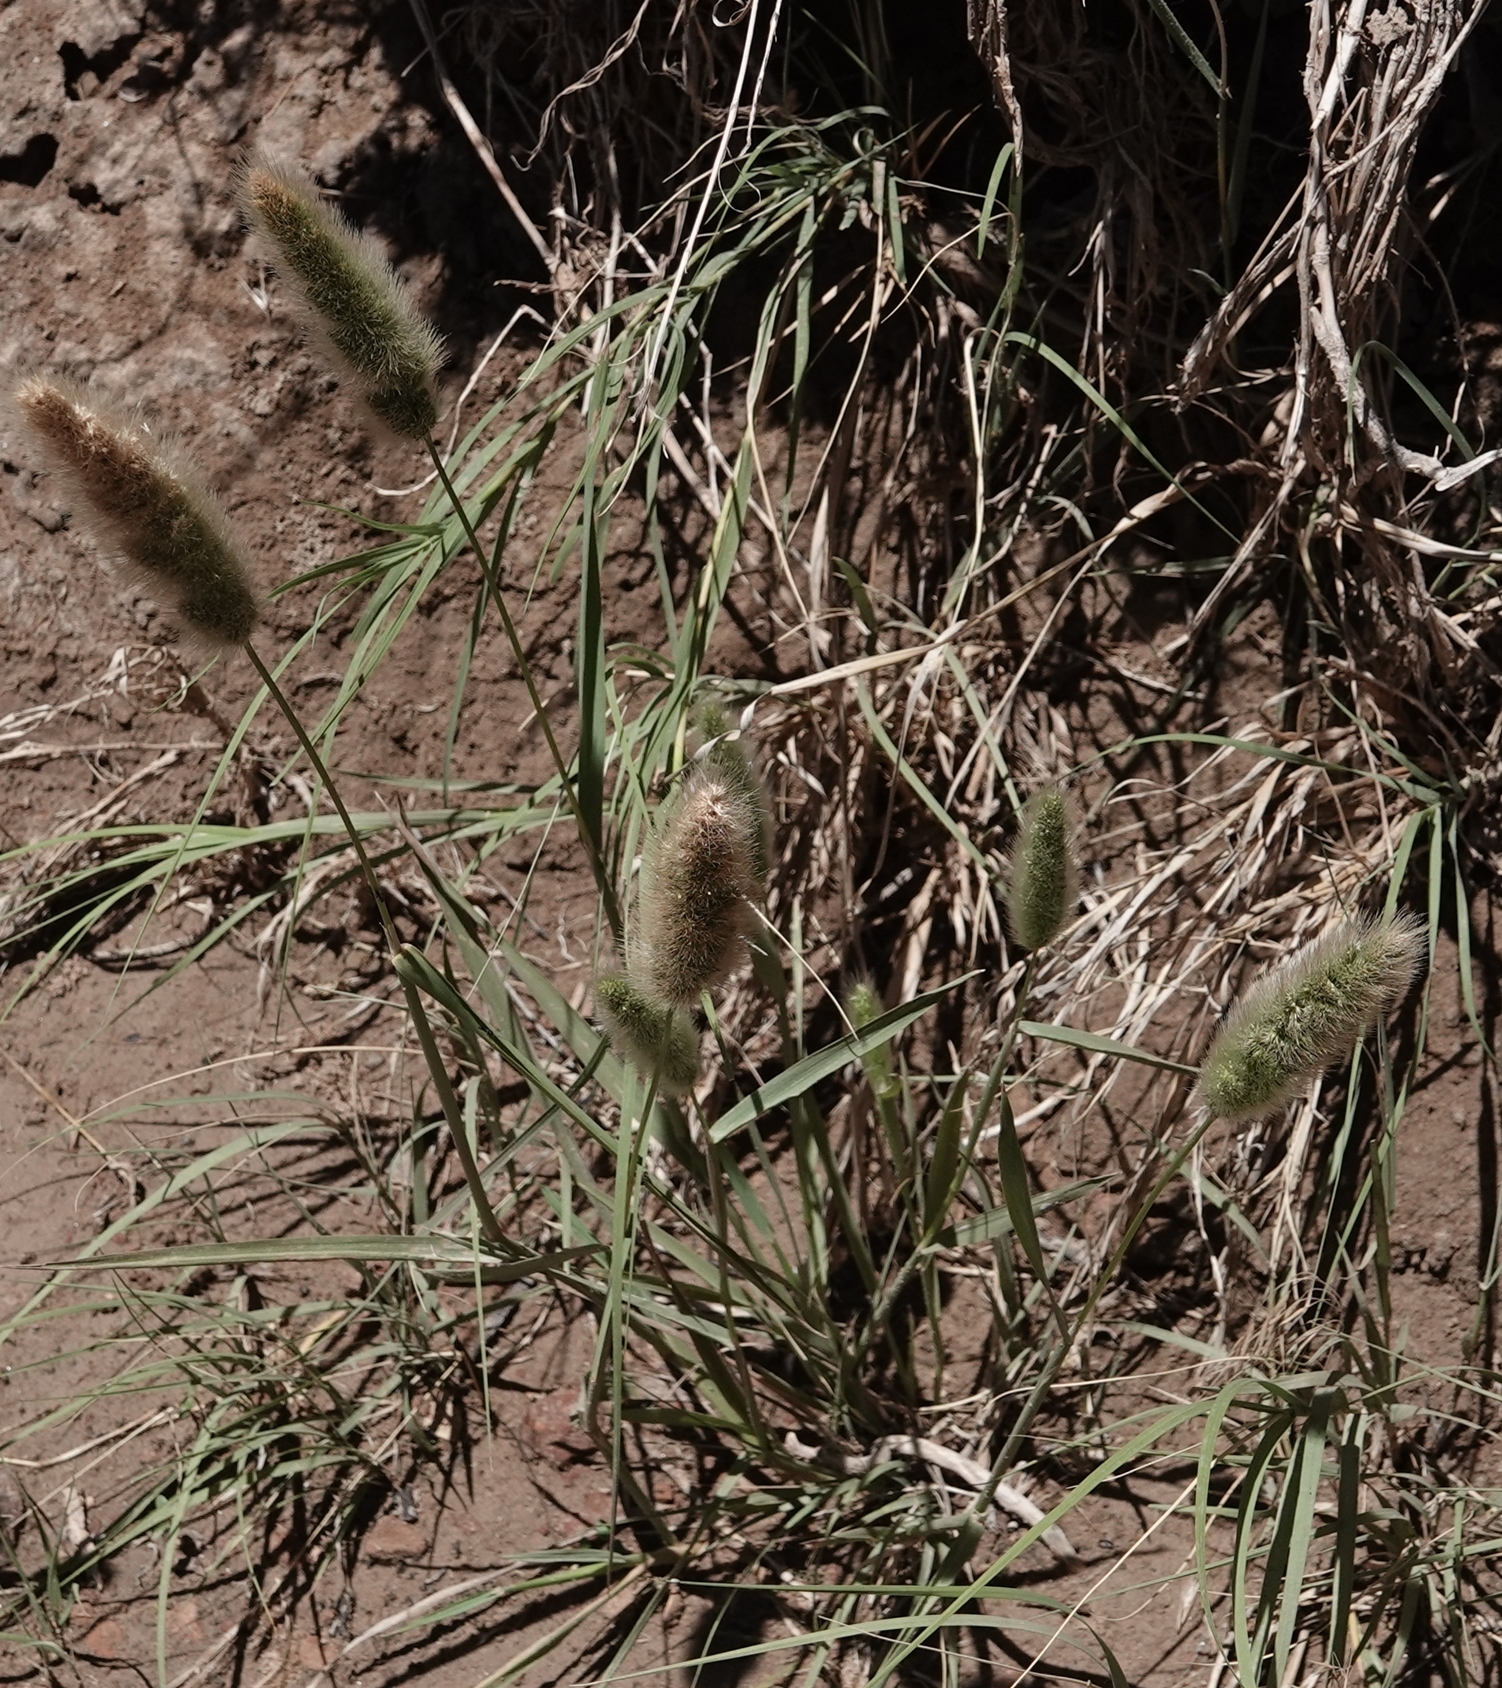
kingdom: Plantae
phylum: Tracheophyta
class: Liliopsida
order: Poales
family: Poaceae
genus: Polypogon
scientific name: Polypogon monspeliensis
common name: Annual rabbitsfoot grass
